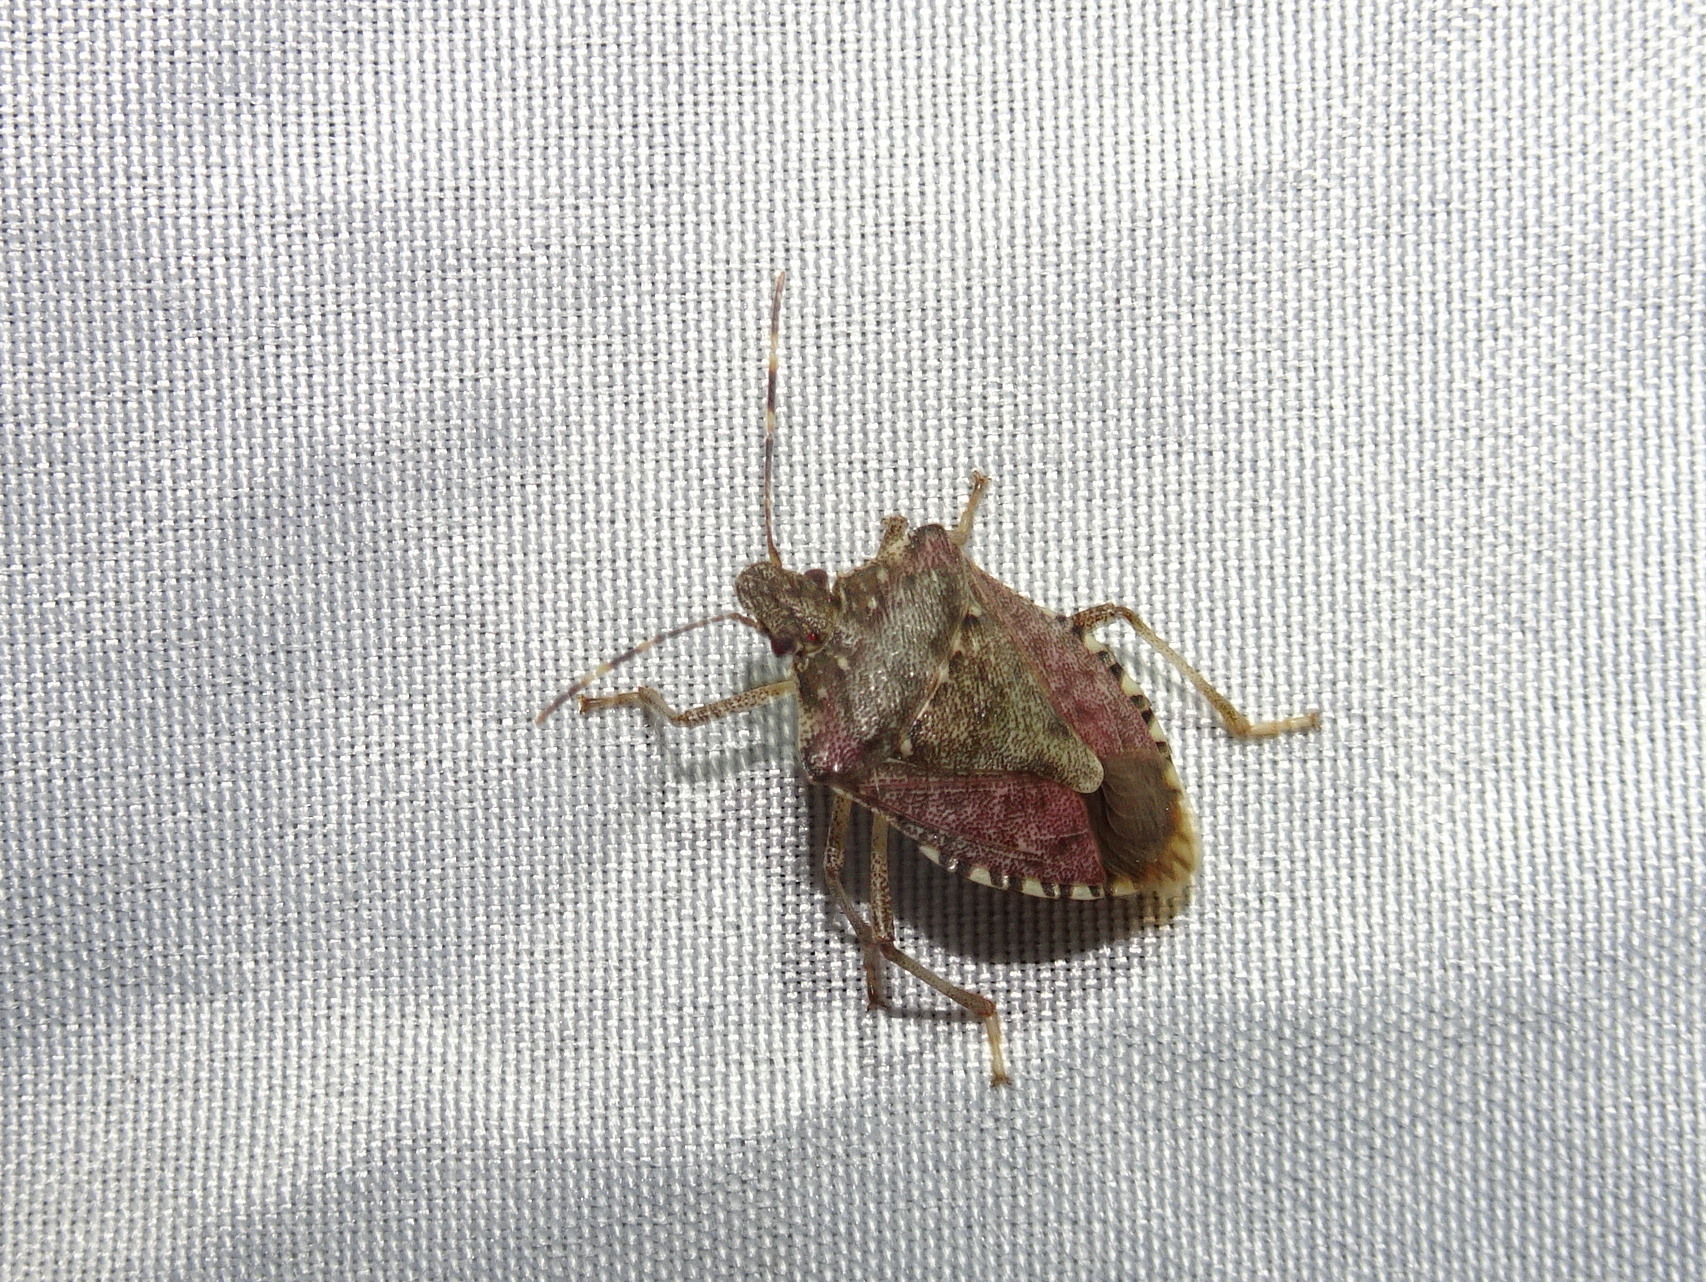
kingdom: Animalia
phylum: Arthropoda
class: Insecta
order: Hemiptera
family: Pentatomidae
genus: Halyomorpha
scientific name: Halyomorpha halys
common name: Brown marmorated stink bug
